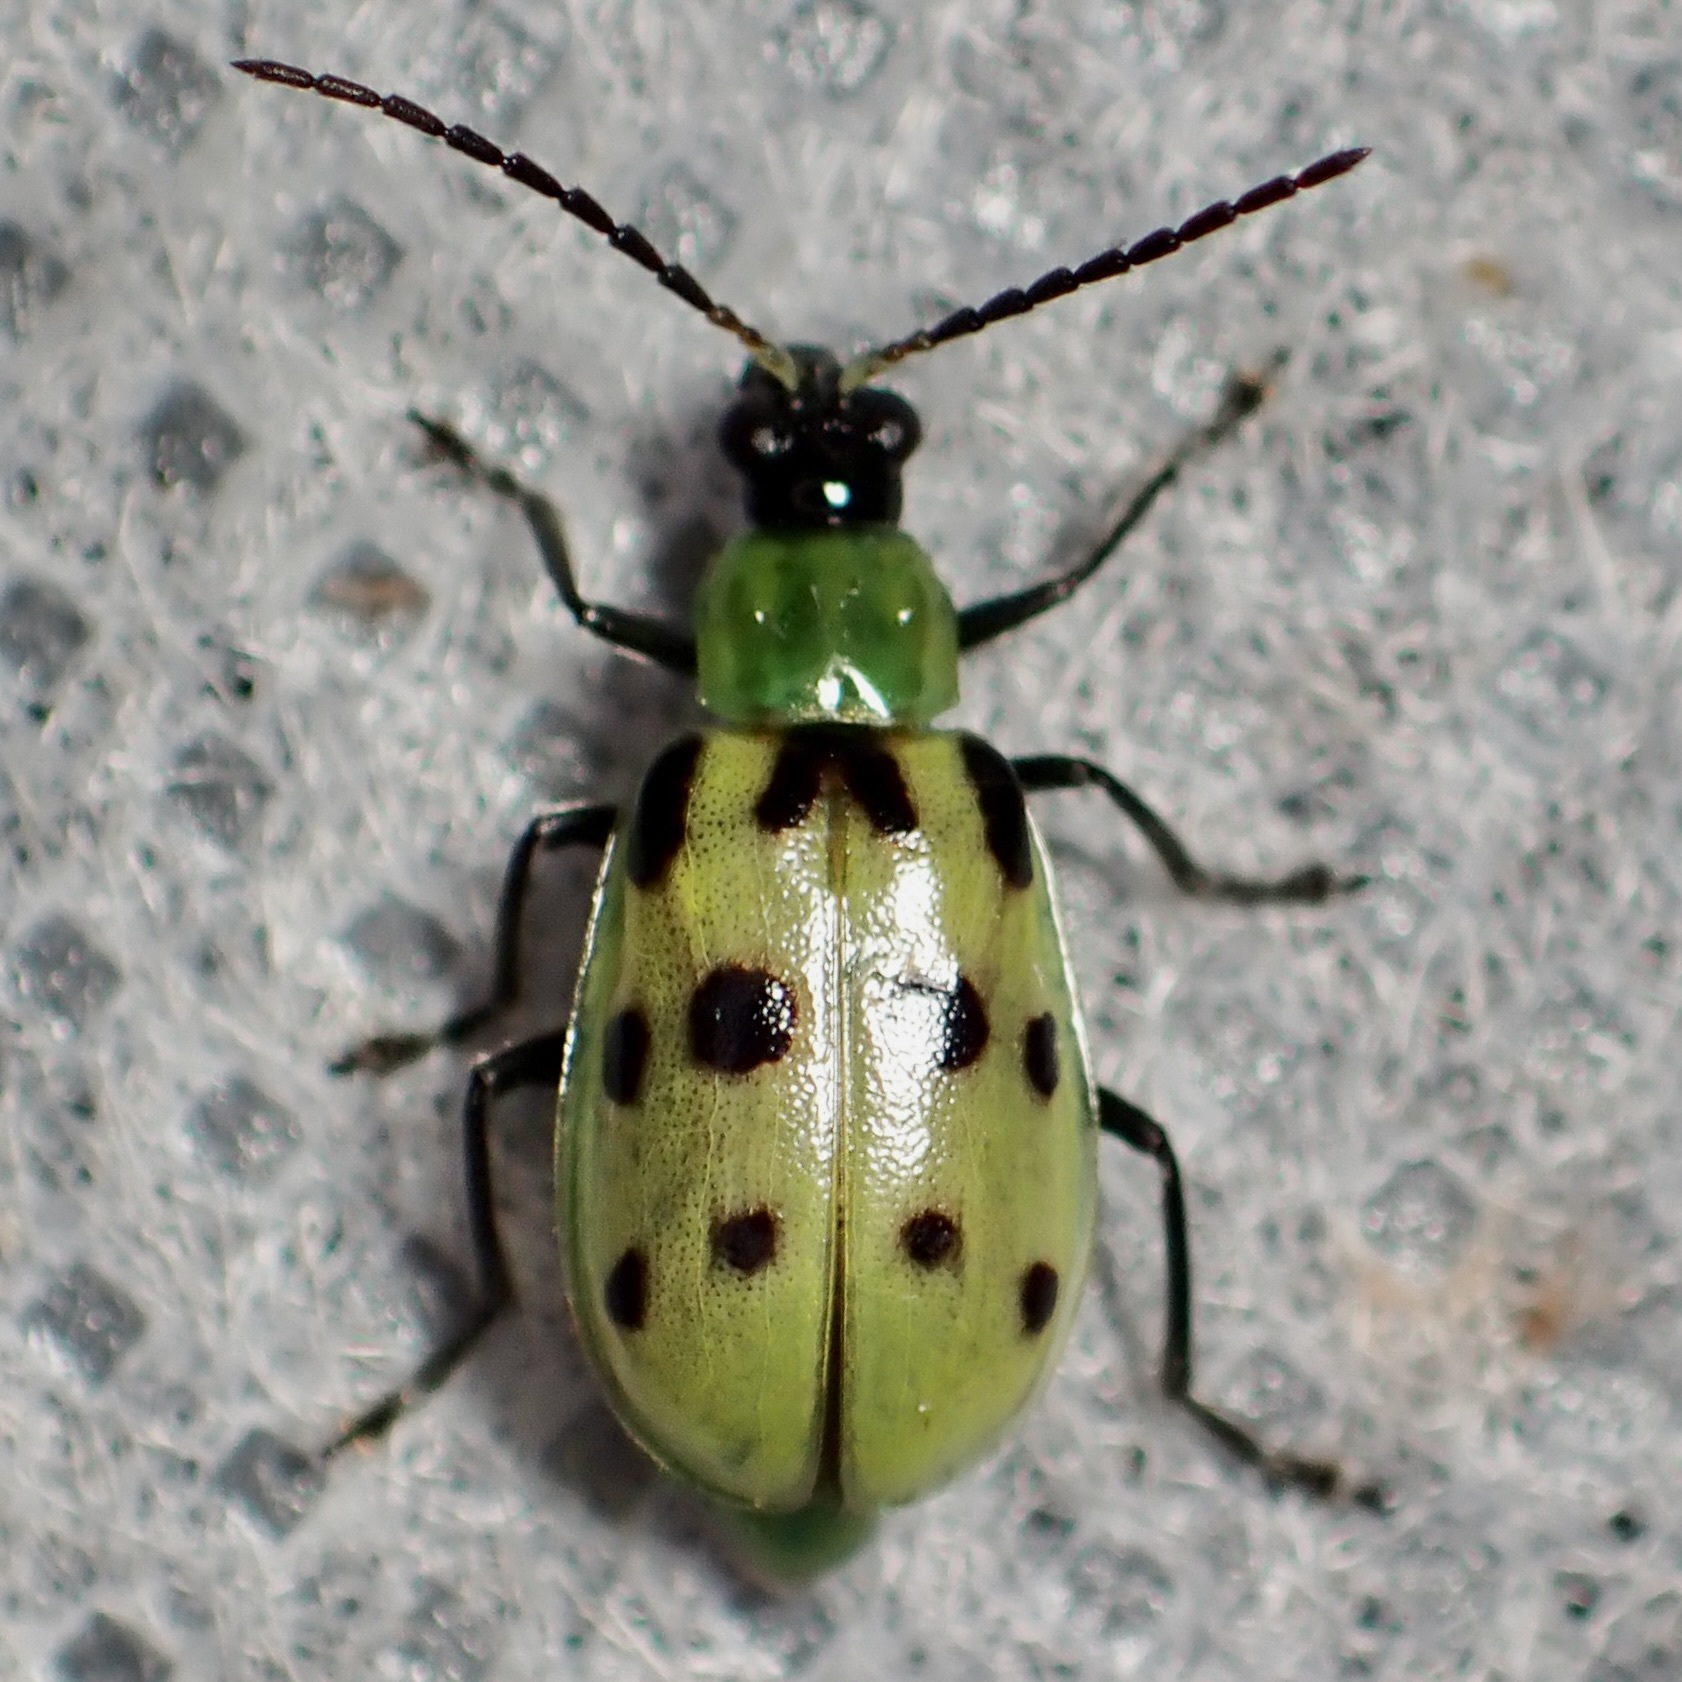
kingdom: Animalia
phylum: Arthropoda
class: Insecta
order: Coleoptera
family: Chrysomelidae
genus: Diabrotica
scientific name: Diabrotica undecimpunctata
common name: Spotted cucumber beetle
